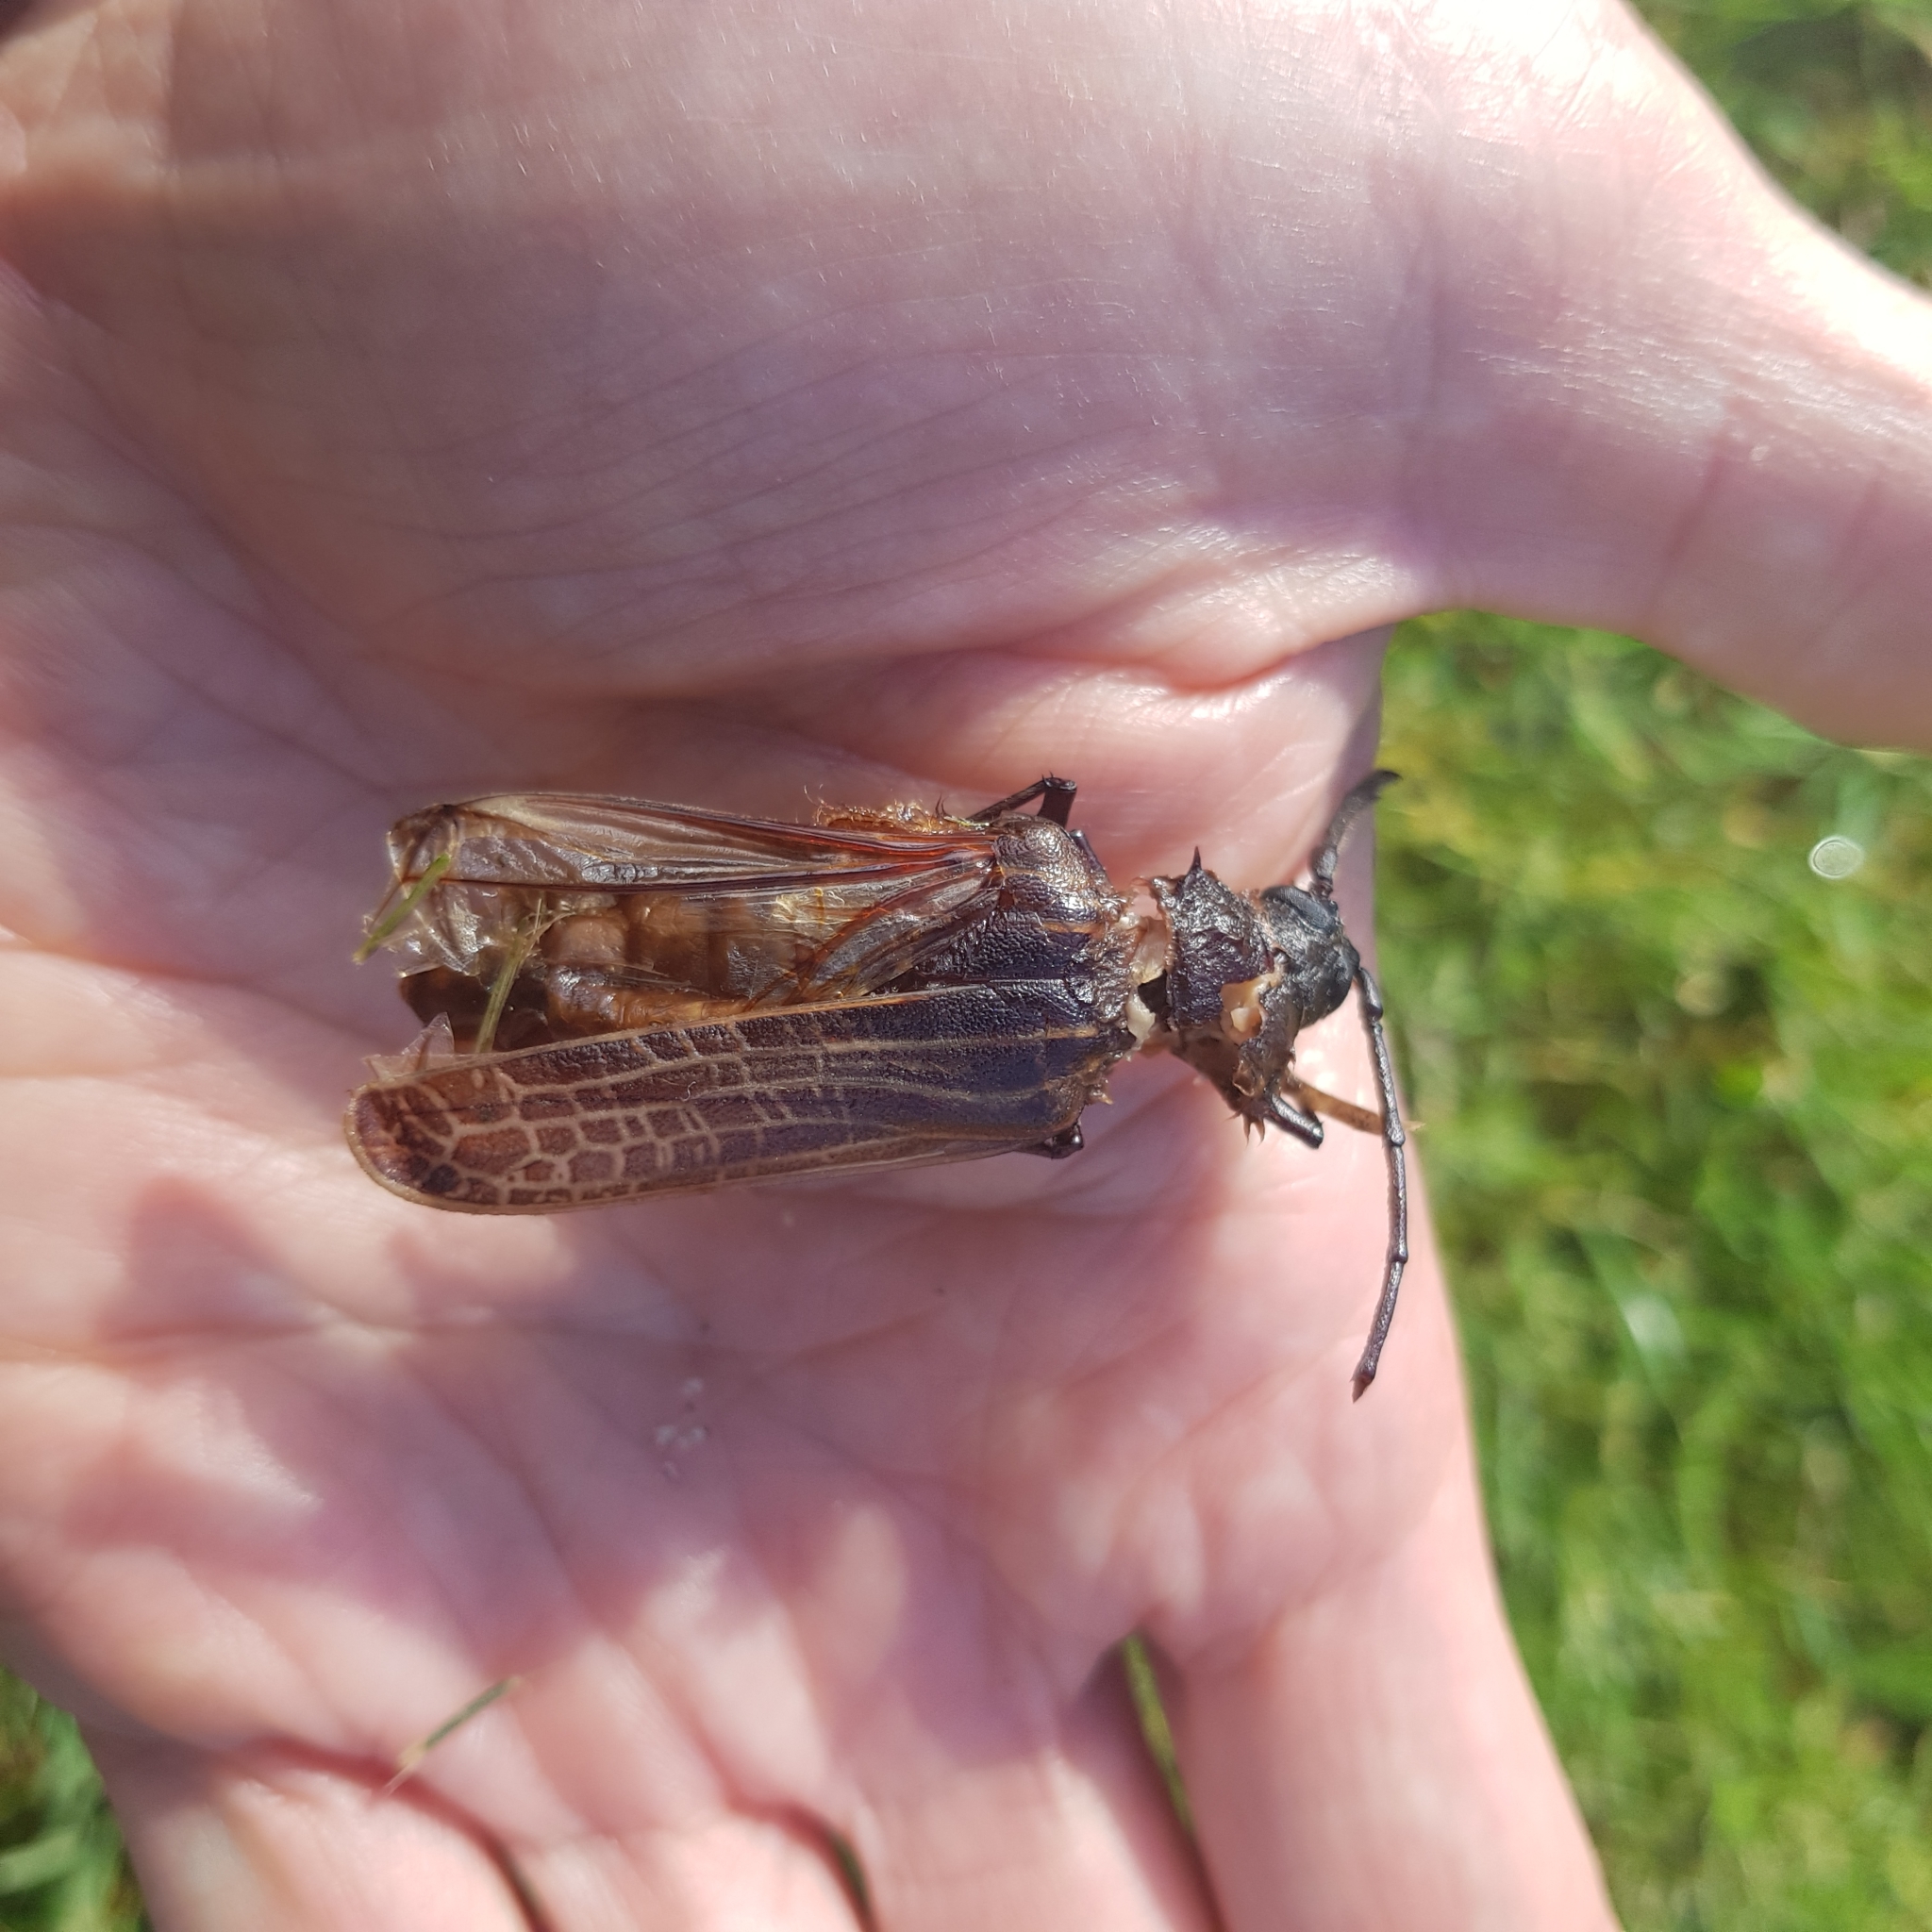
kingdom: Animalia
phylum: Arthropoda
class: Insecta
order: Coleoptera
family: Cerambycidae
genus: Prionoplus
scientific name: Prionoplus reticularis
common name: Huhu beetle
